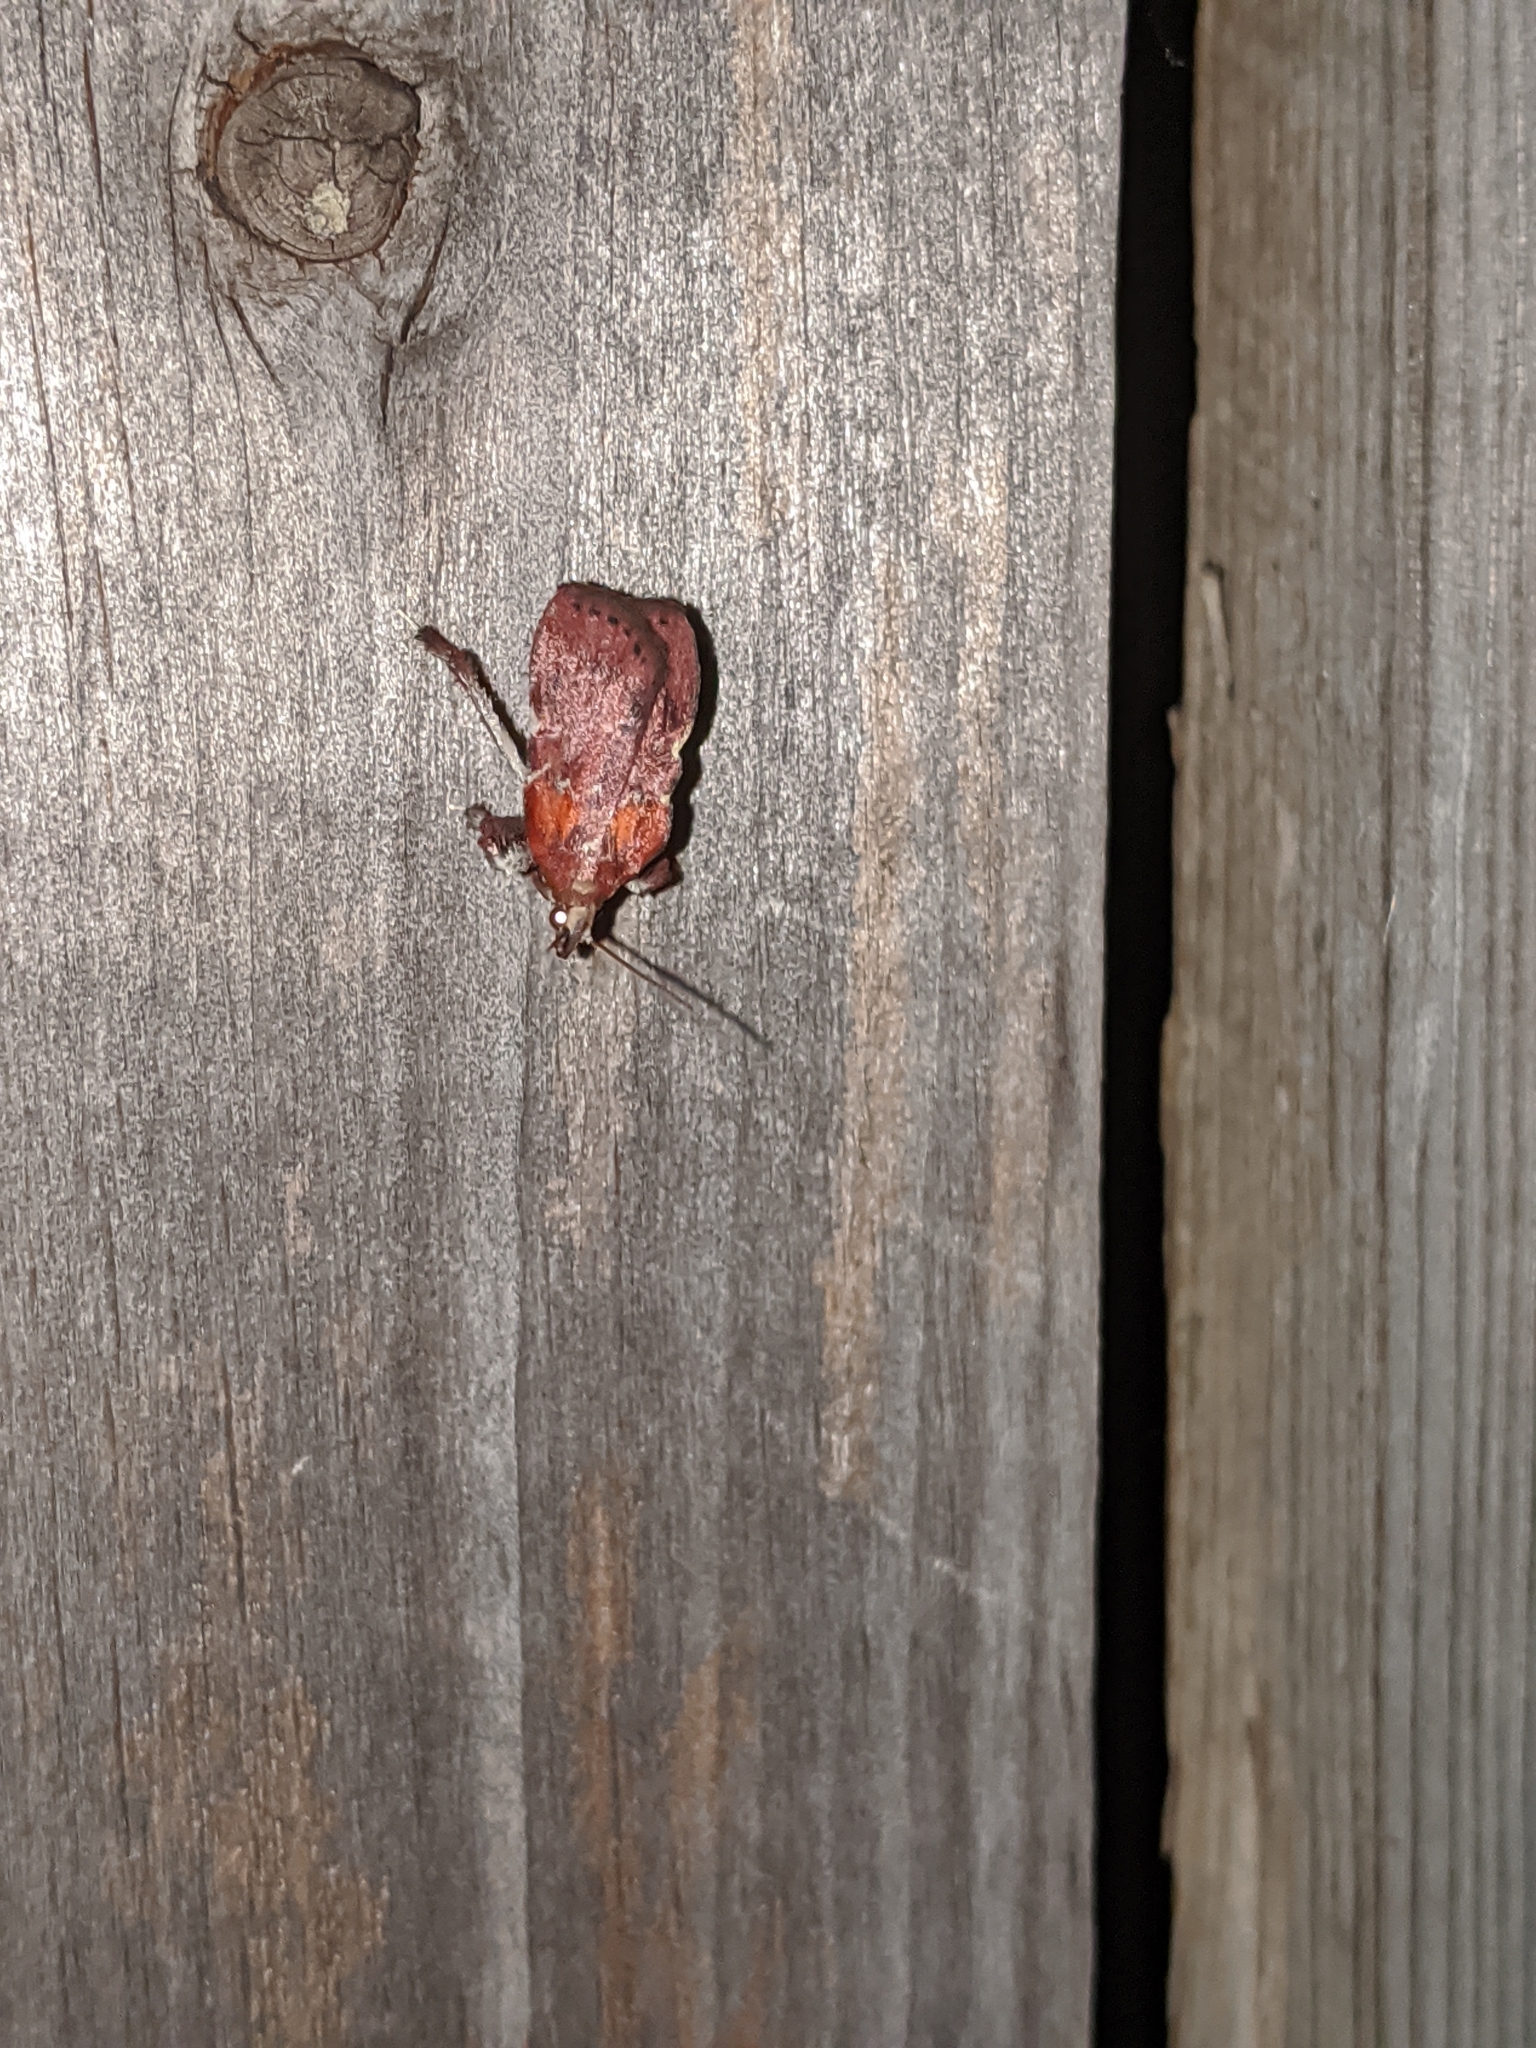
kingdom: Animalia
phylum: Arthropoda
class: Insecta
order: Lepidoptera
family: Pyralidae
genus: Galasa
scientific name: Galasa nigrinodis
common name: Boxwood leaftier moth
